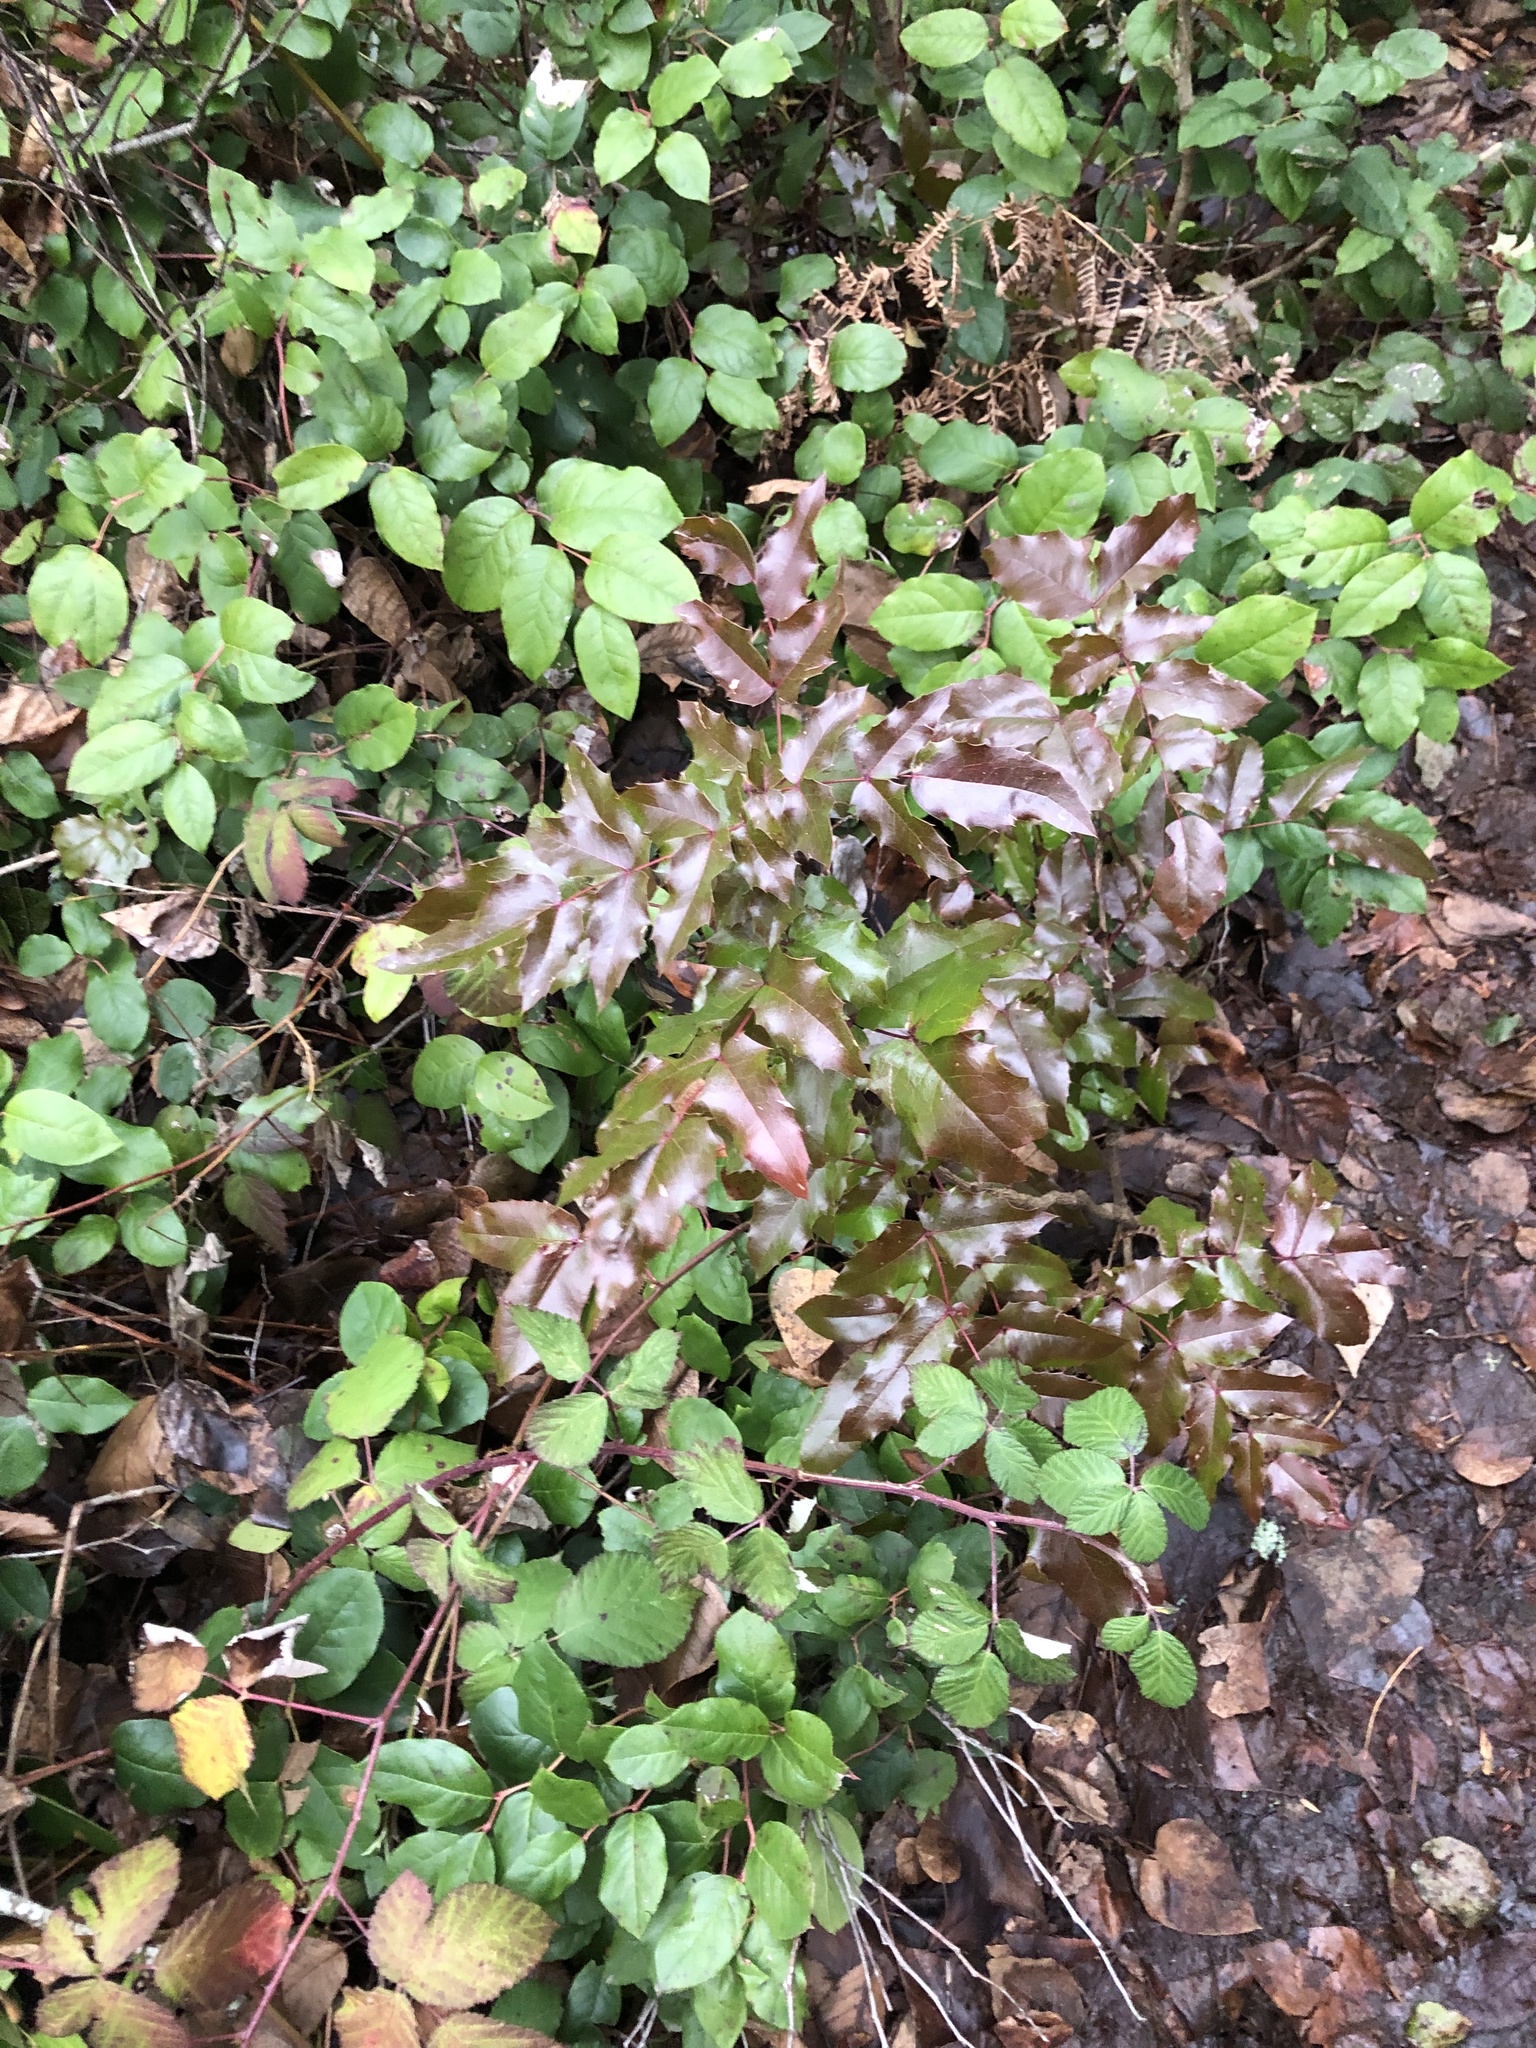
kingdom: Plantae
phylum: Tracheophyta
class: Magnoliopsida
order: Ranunculales
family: Berberidaceae
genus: Mahonia
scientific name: Mahonia aquifolium
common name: Oregon-grape
